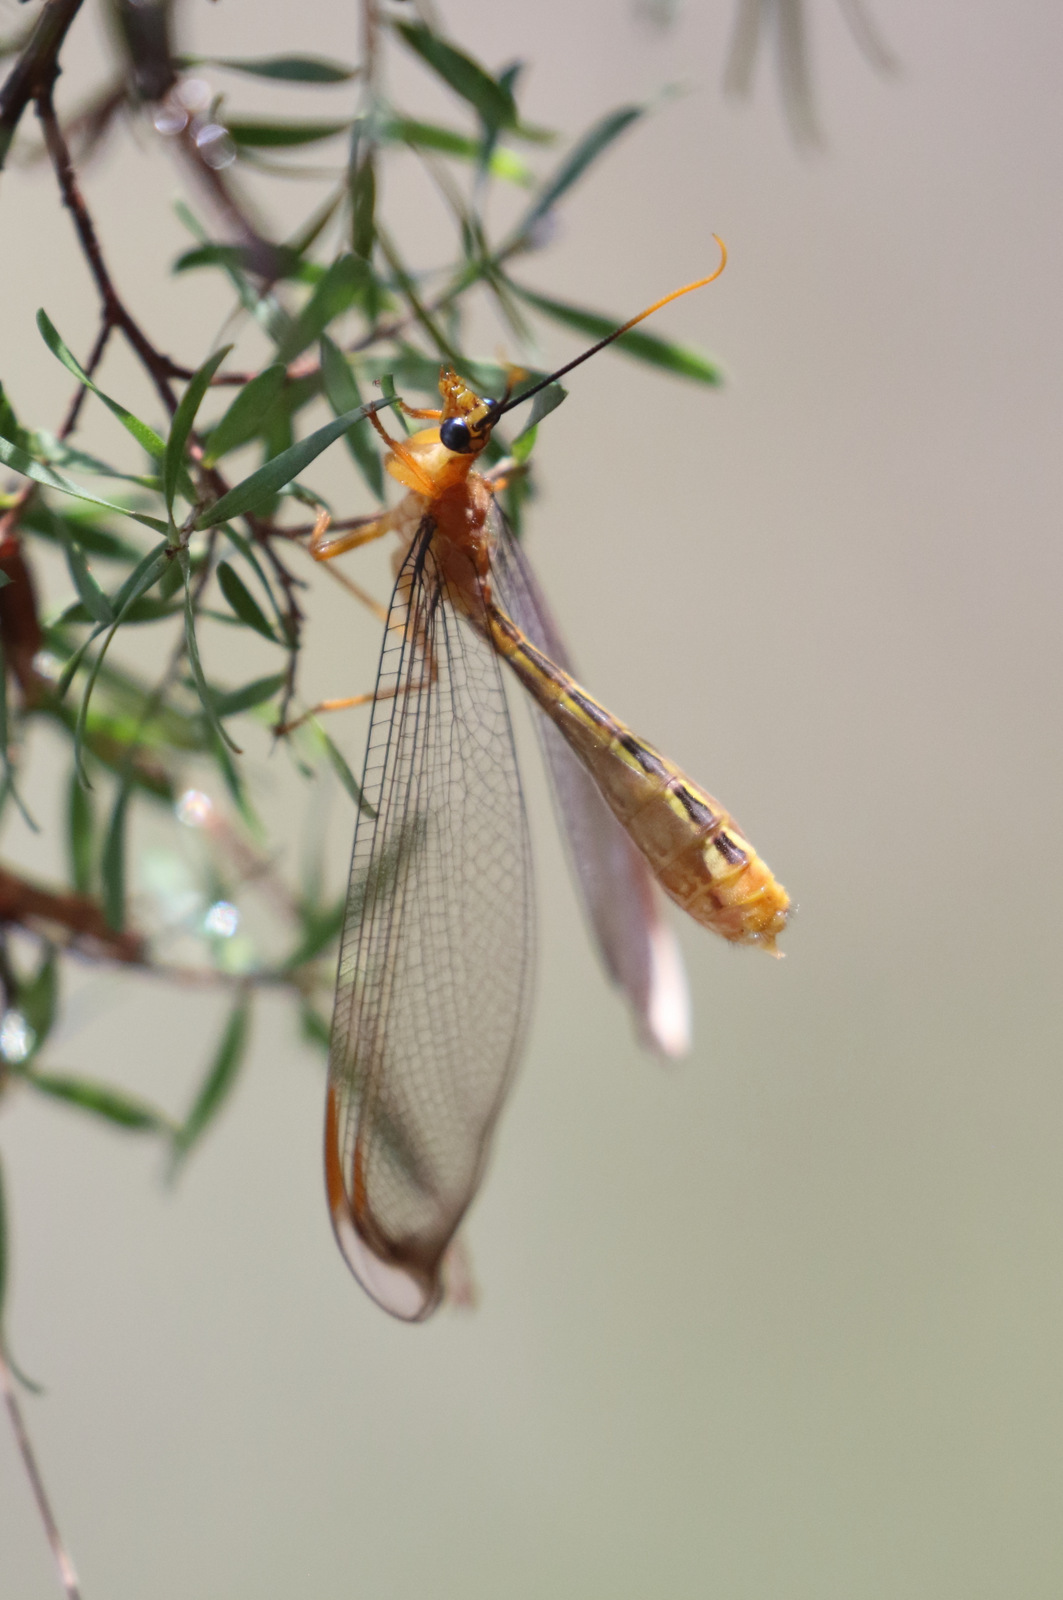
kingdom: Animalia
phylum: Arthropoda
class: Insecta
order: Neuroptera
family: Nymphidae
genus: Nymphes
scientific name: Nymphes myrmeleonoides
